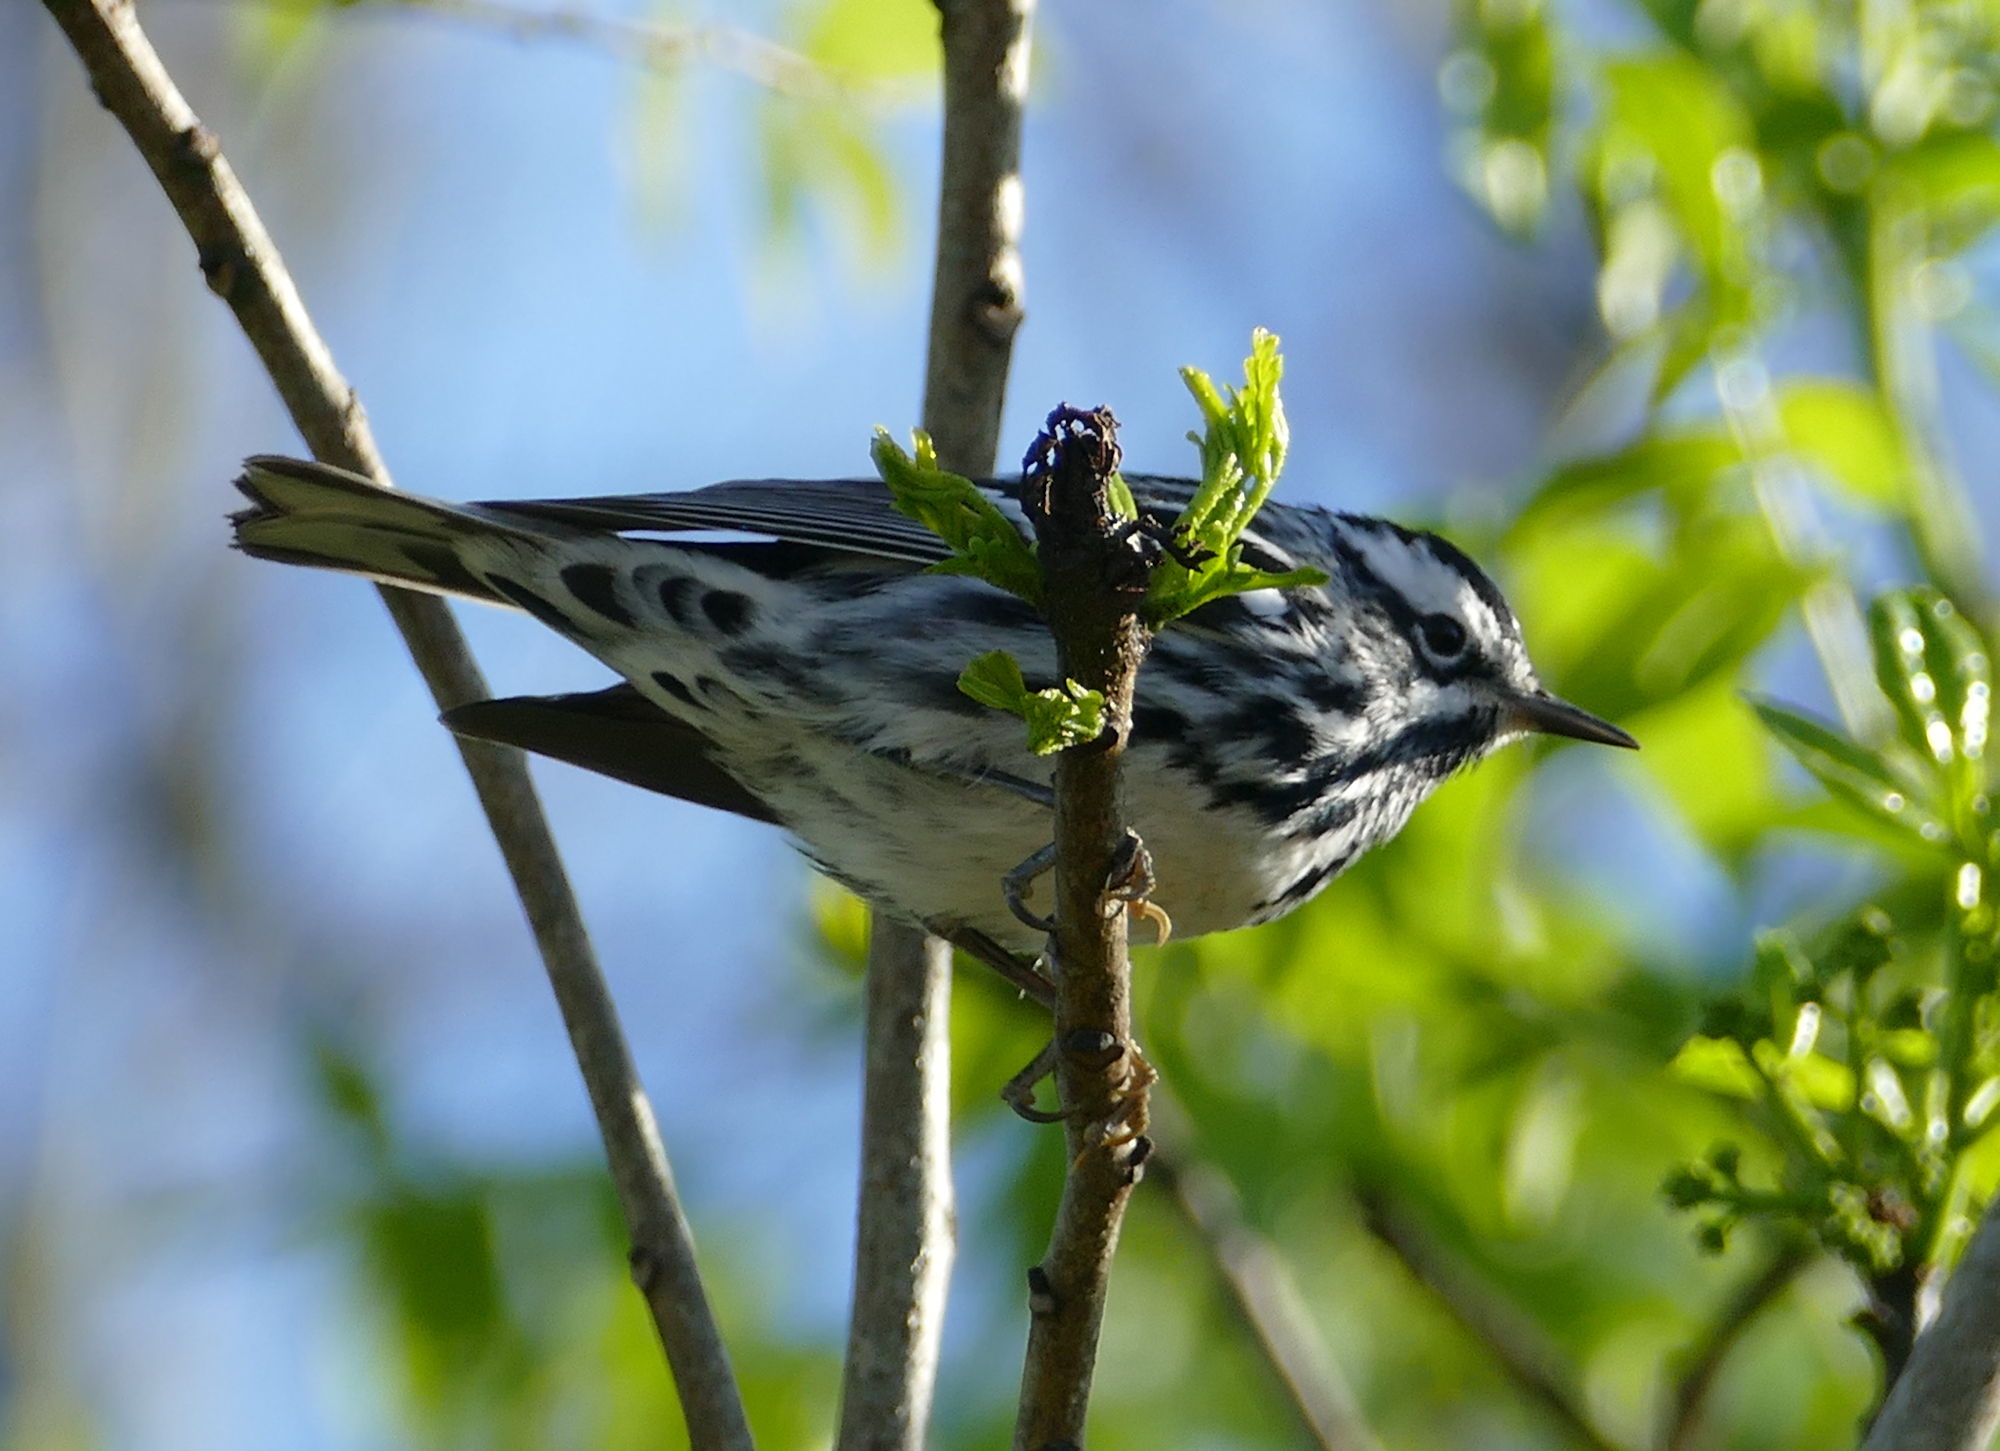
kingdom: Animalia
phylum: Chordata
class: Aves
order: Passeriformes
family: Parulidae
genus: Mniotilta
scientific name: Mniotilta varia
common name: Black-and-white warbler
